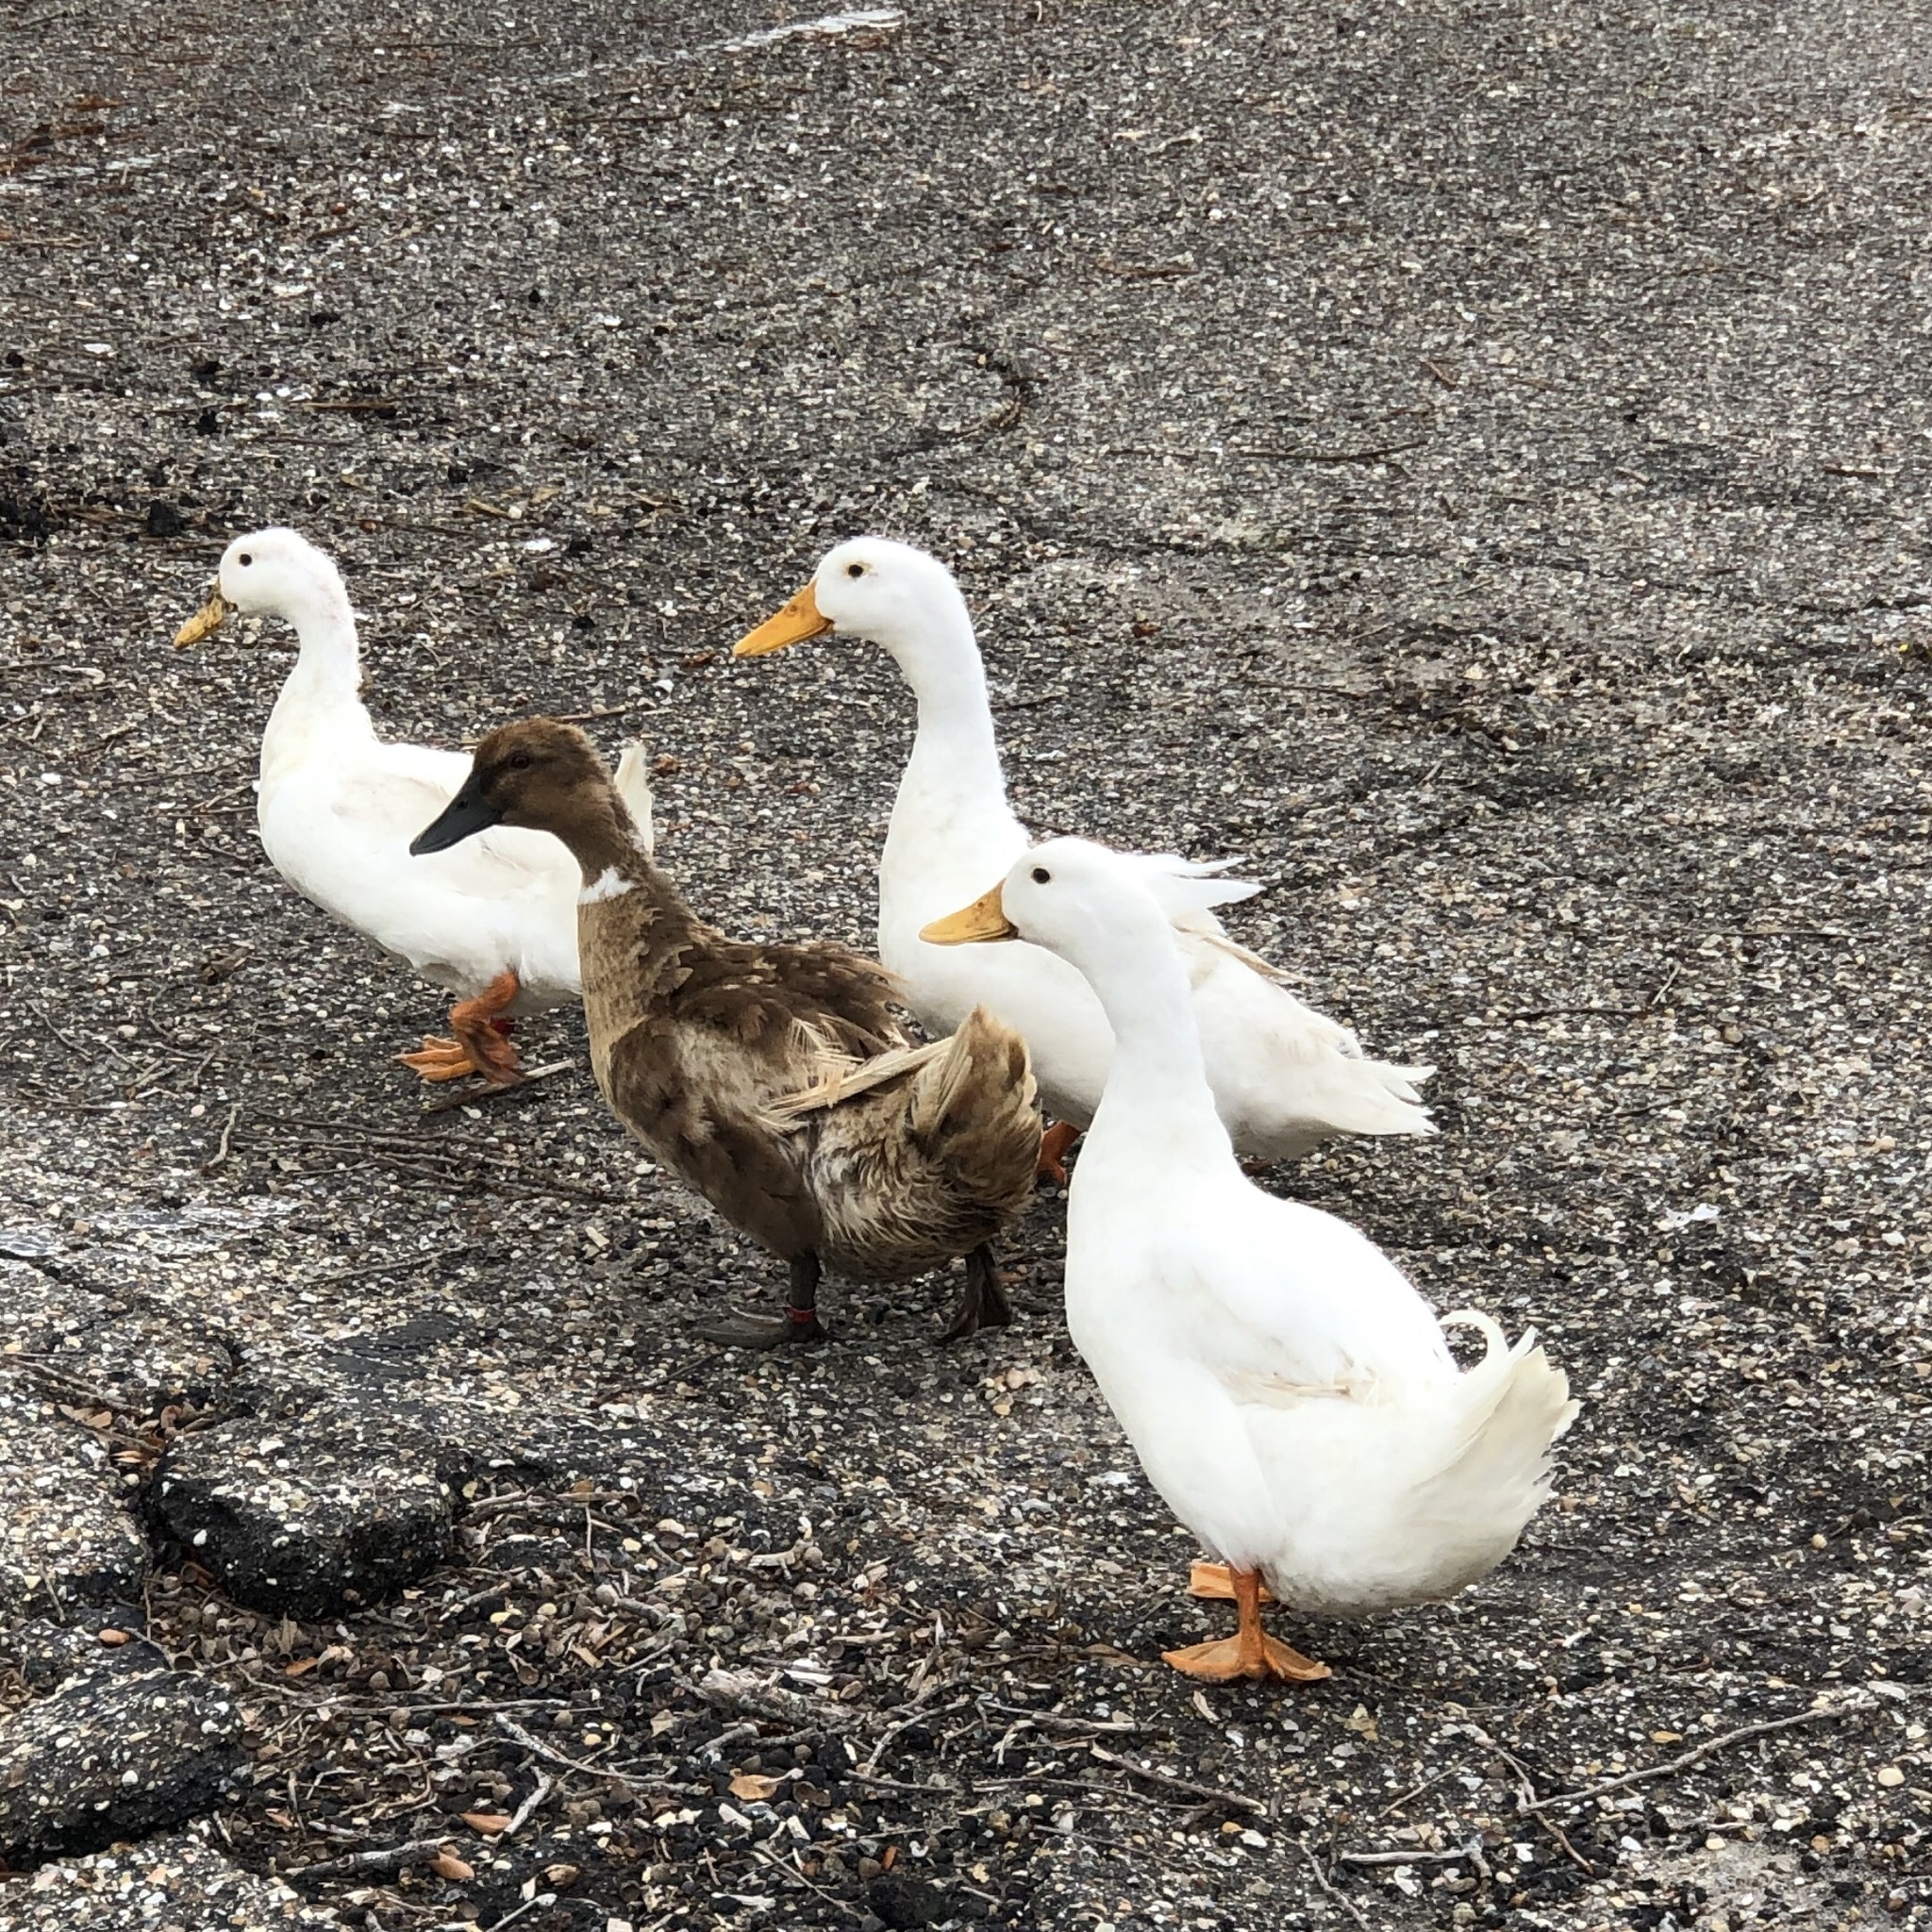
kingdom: Animalia
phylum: Chordata
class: Aves
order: Anseriformes
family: Anatidae
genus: Anas
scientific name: Anas platyrhynchos
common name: Mallard
